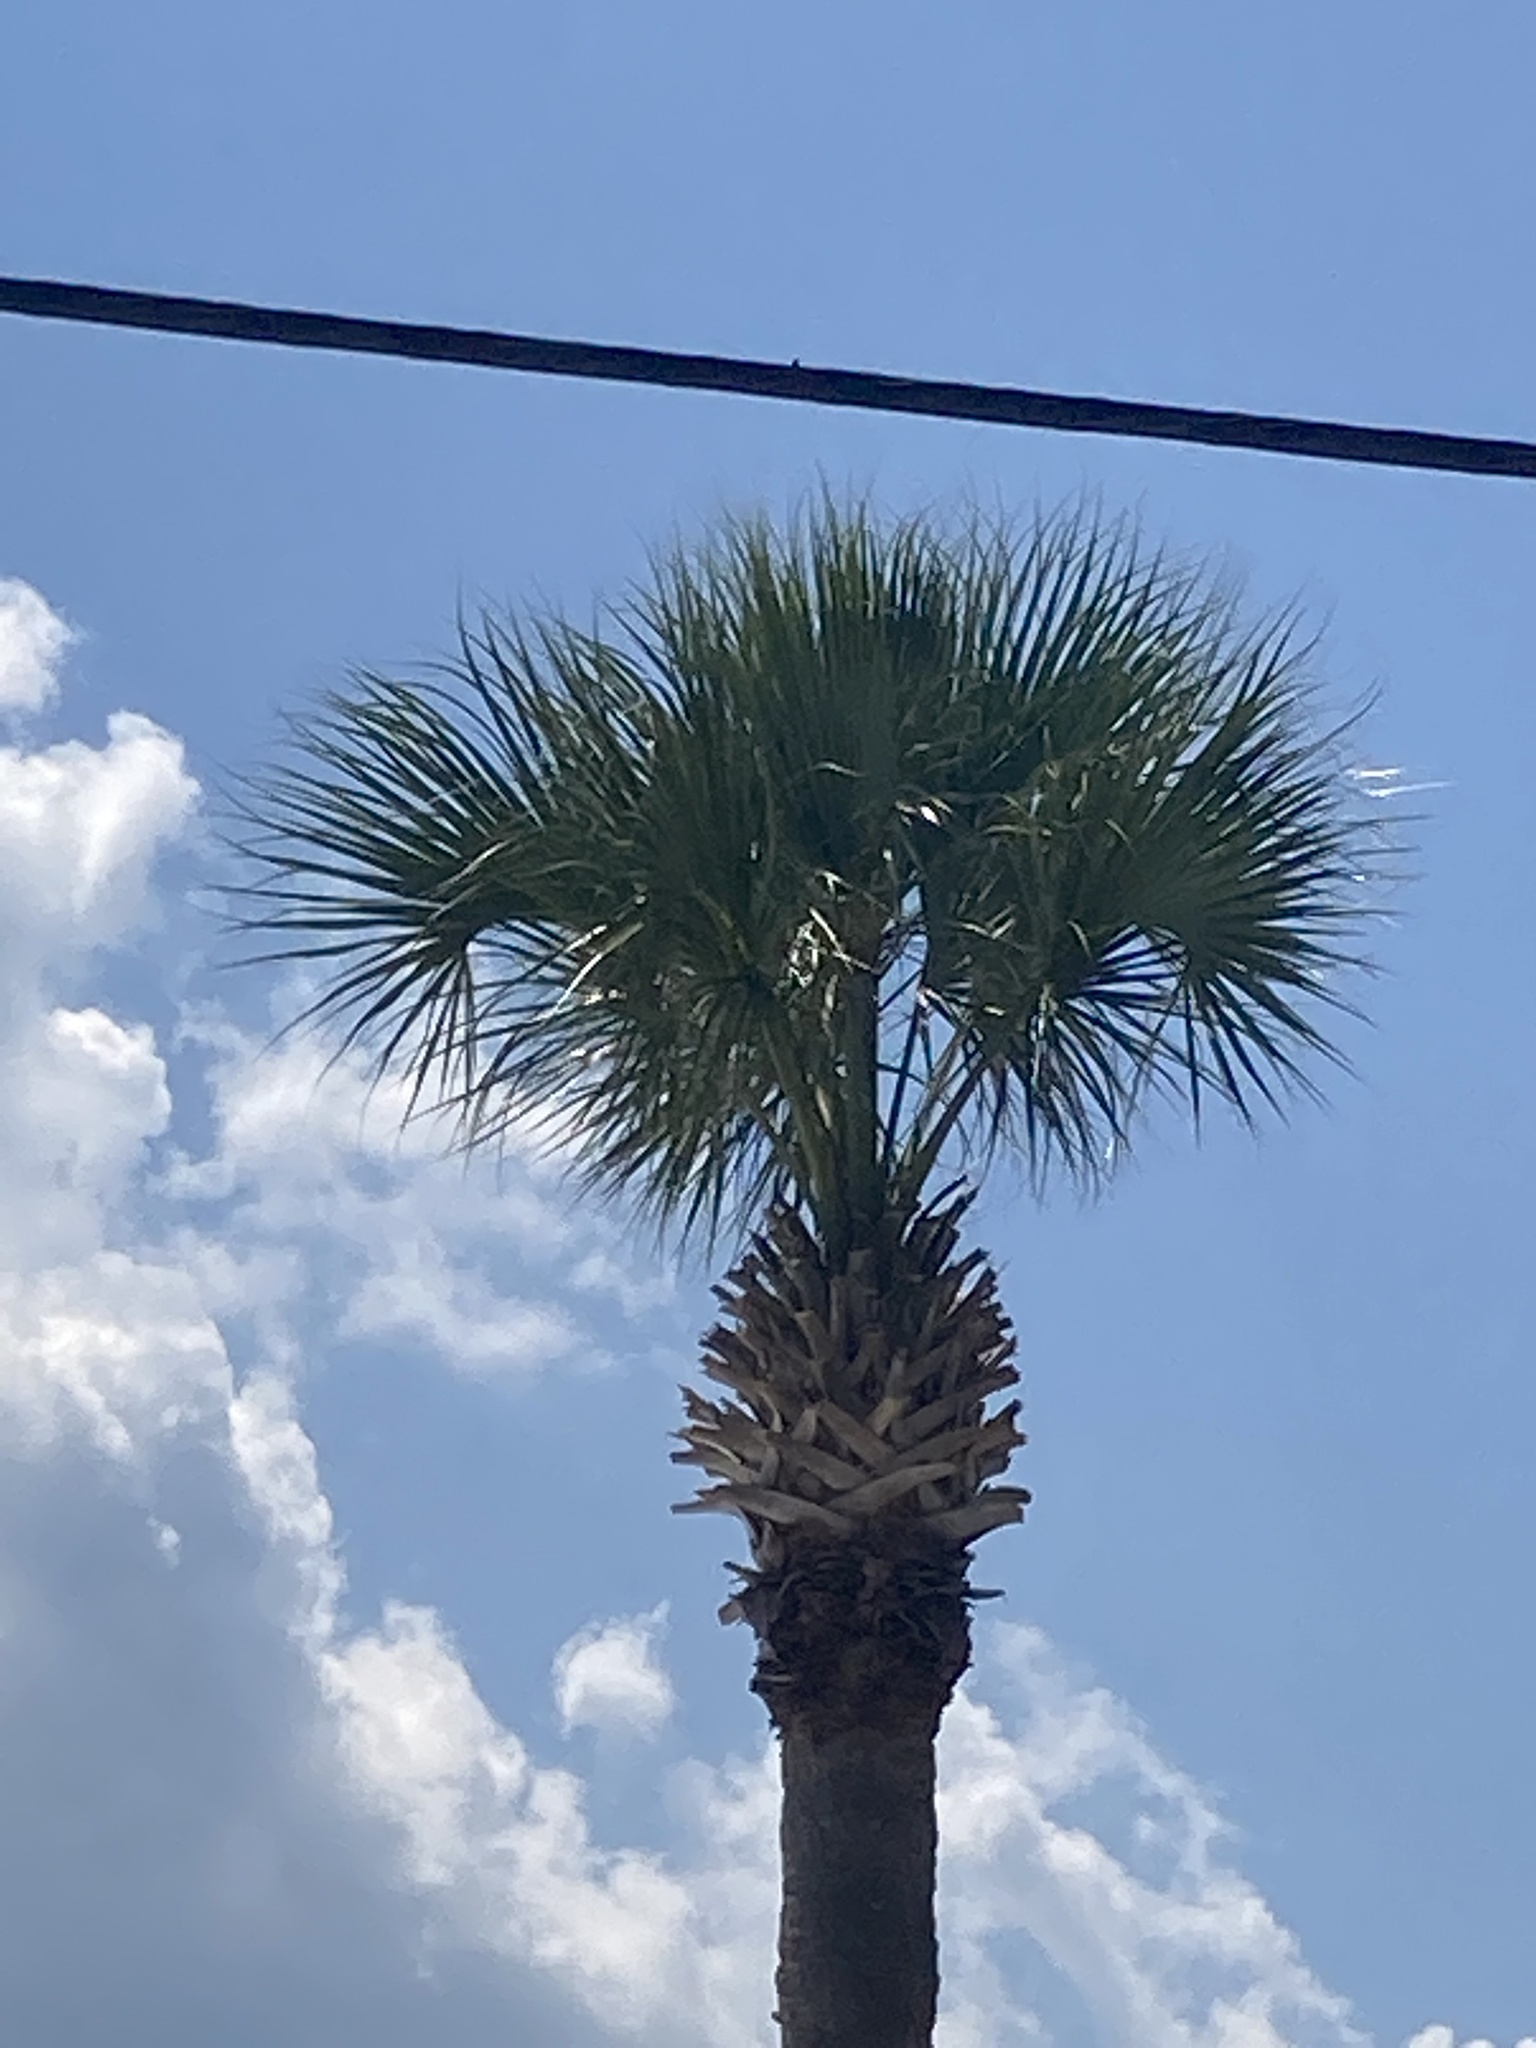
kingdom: Plantae
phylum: Tracheophyta
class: Liliopsida
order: Arecales
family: Arecaceae
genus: Sabal
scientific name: Sabal palmetto
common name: Blue palmetto
